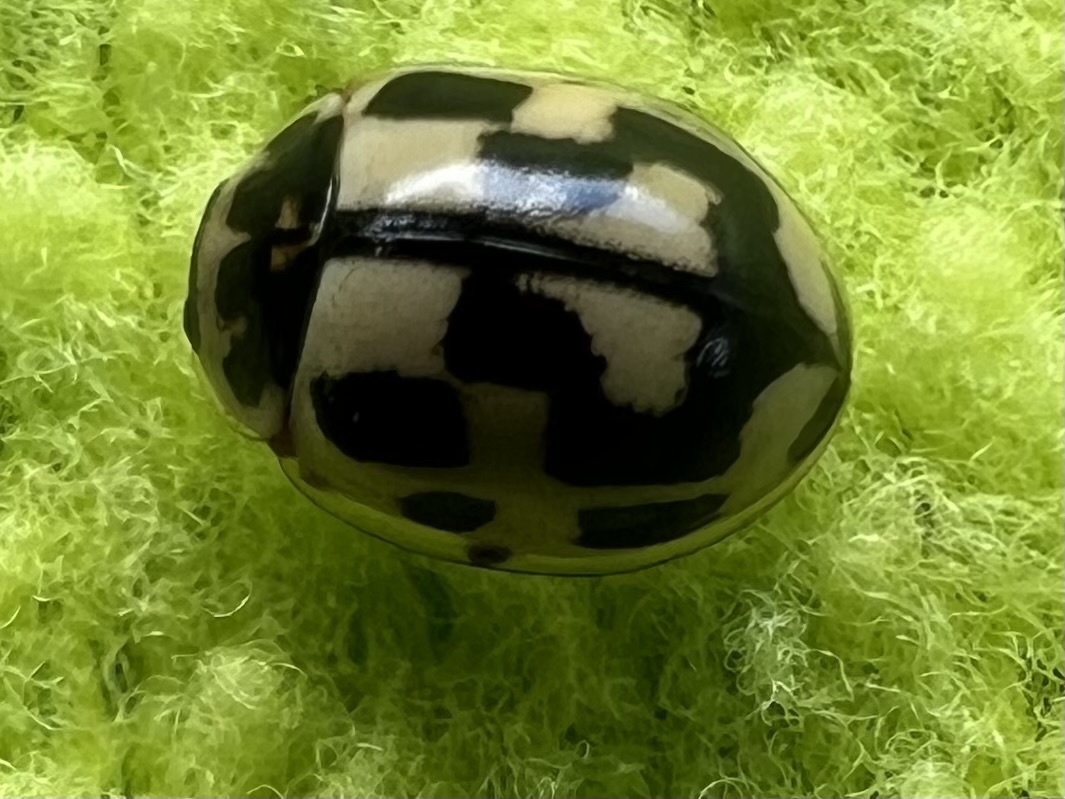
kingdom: Animalia
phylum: Arthropoda
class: Insecta
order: Coleoptera
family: Coccinellidae
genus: Propylaea
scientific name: Propylaea quatuordecimpunctata
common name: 14-spotted ladybird beetle
